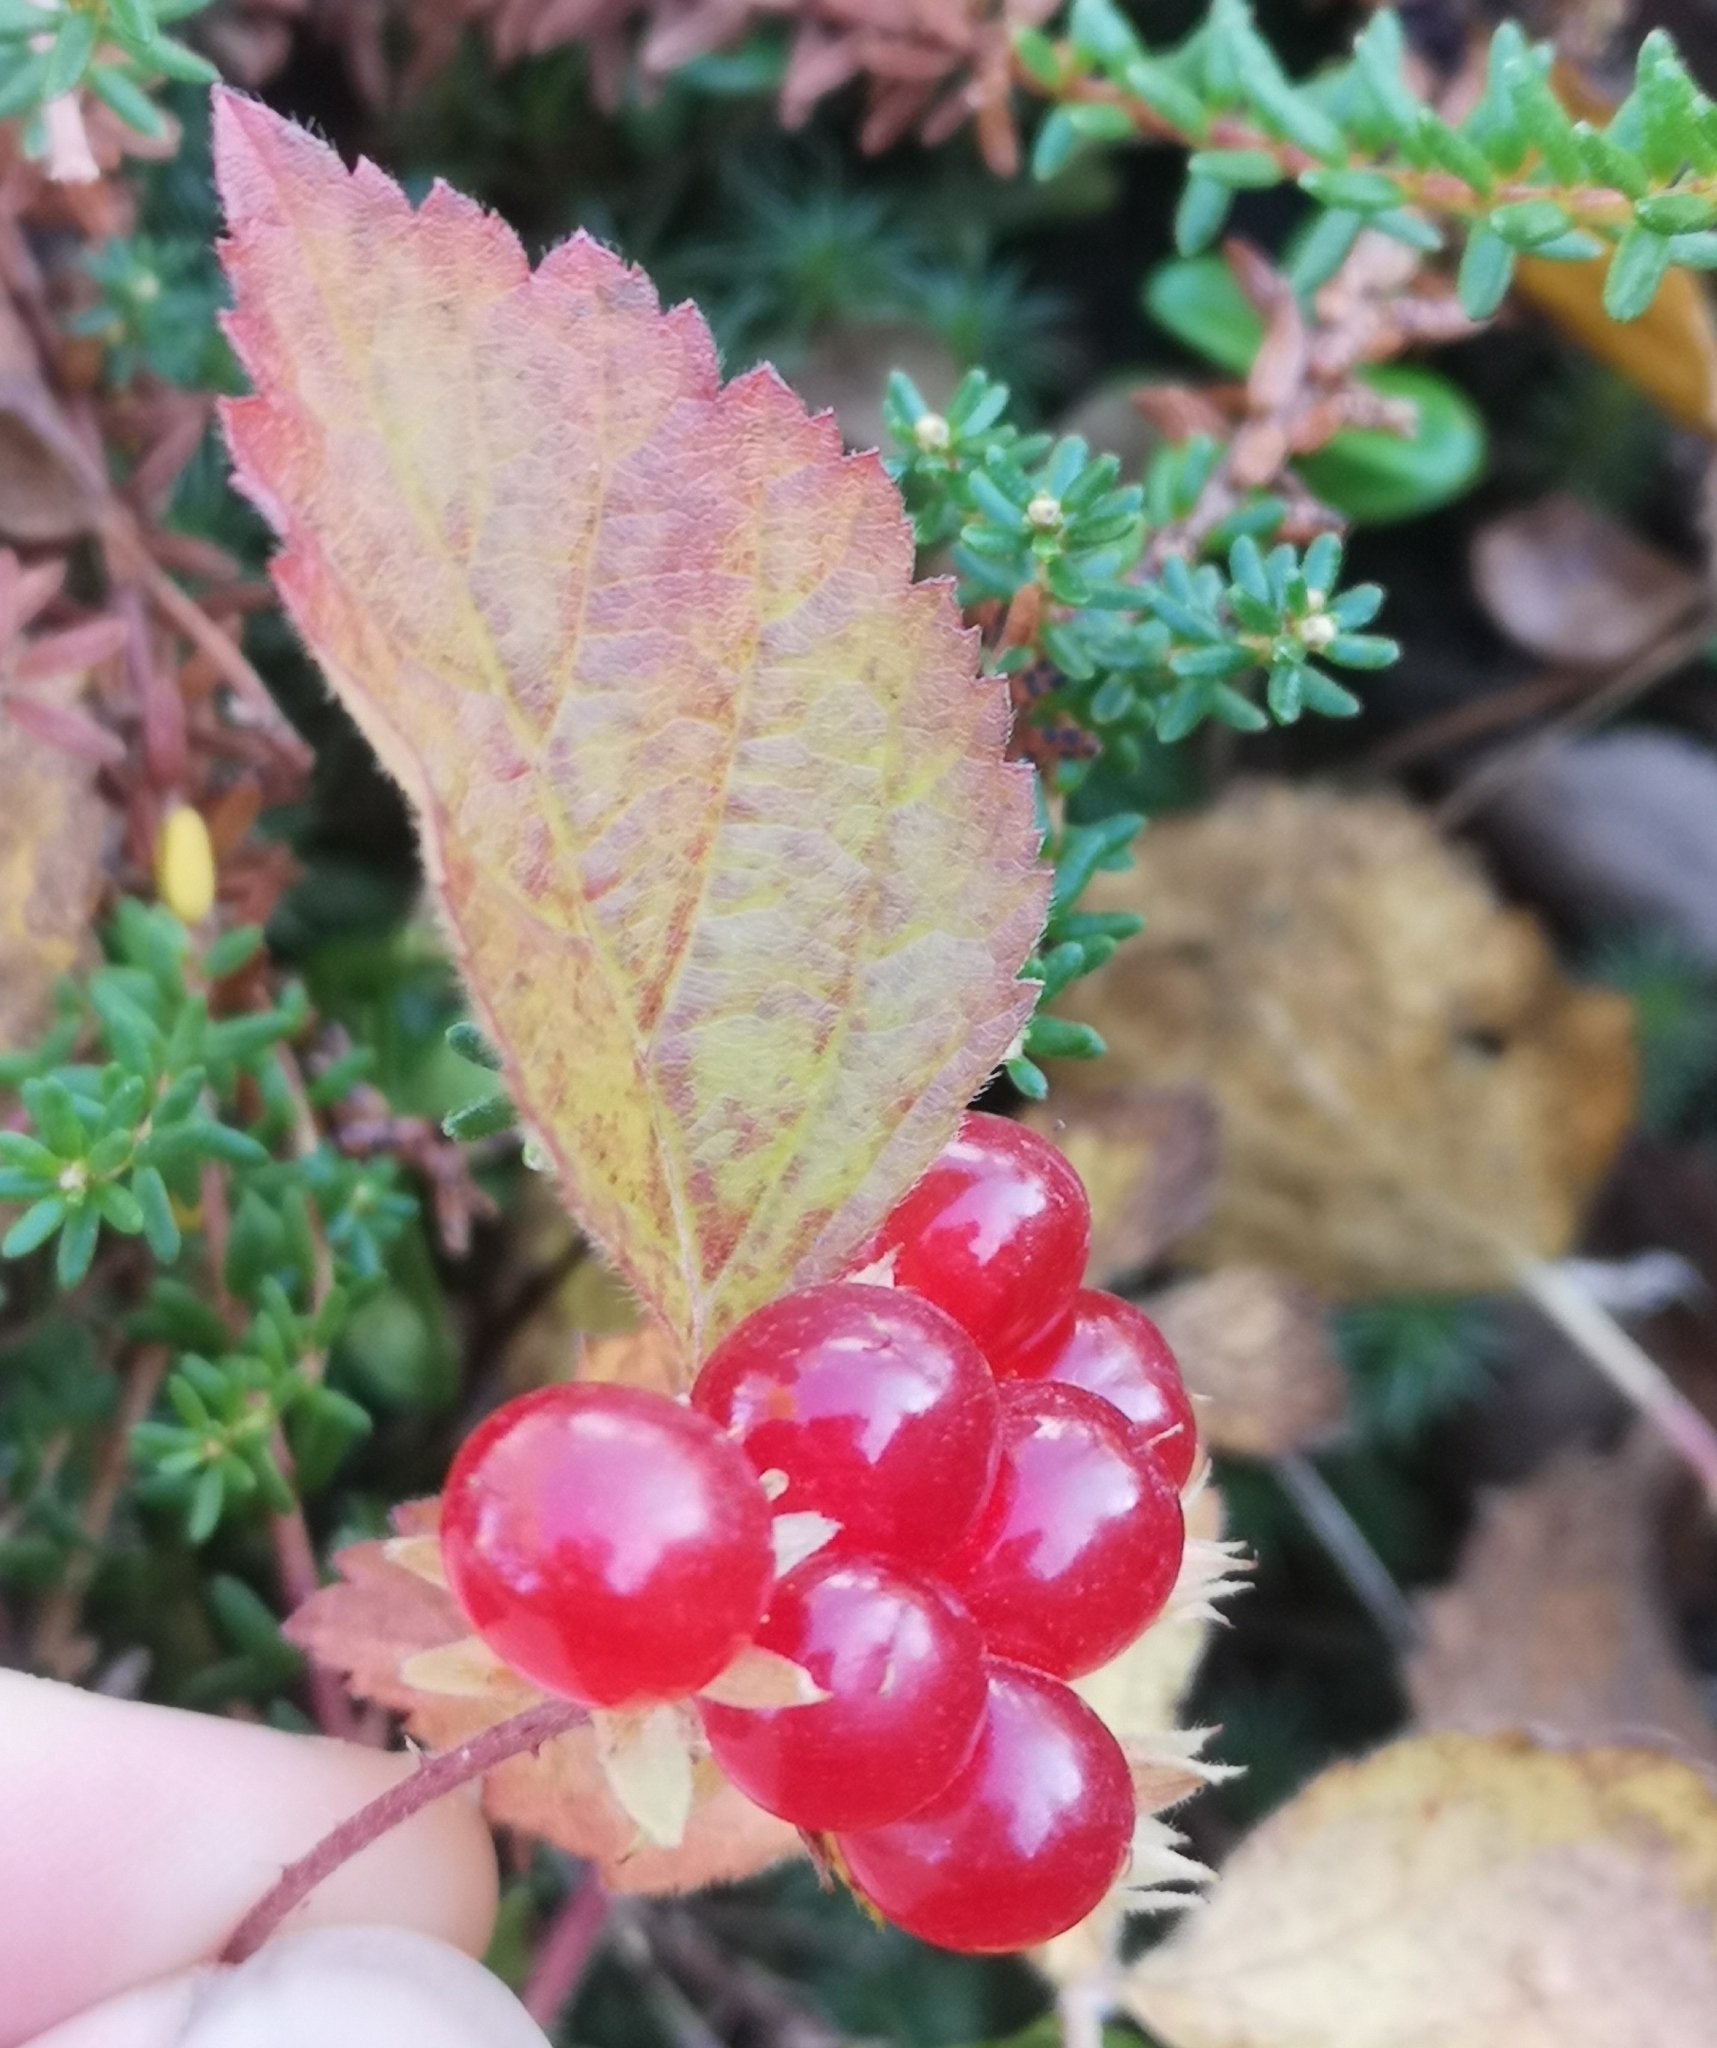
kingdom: Plantae
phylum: Tracheophyta
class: Magnoliopsida
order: Rosales
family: Rosaceae
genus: Rubus
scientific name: Rubus saxatilis
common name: Stone bramble
